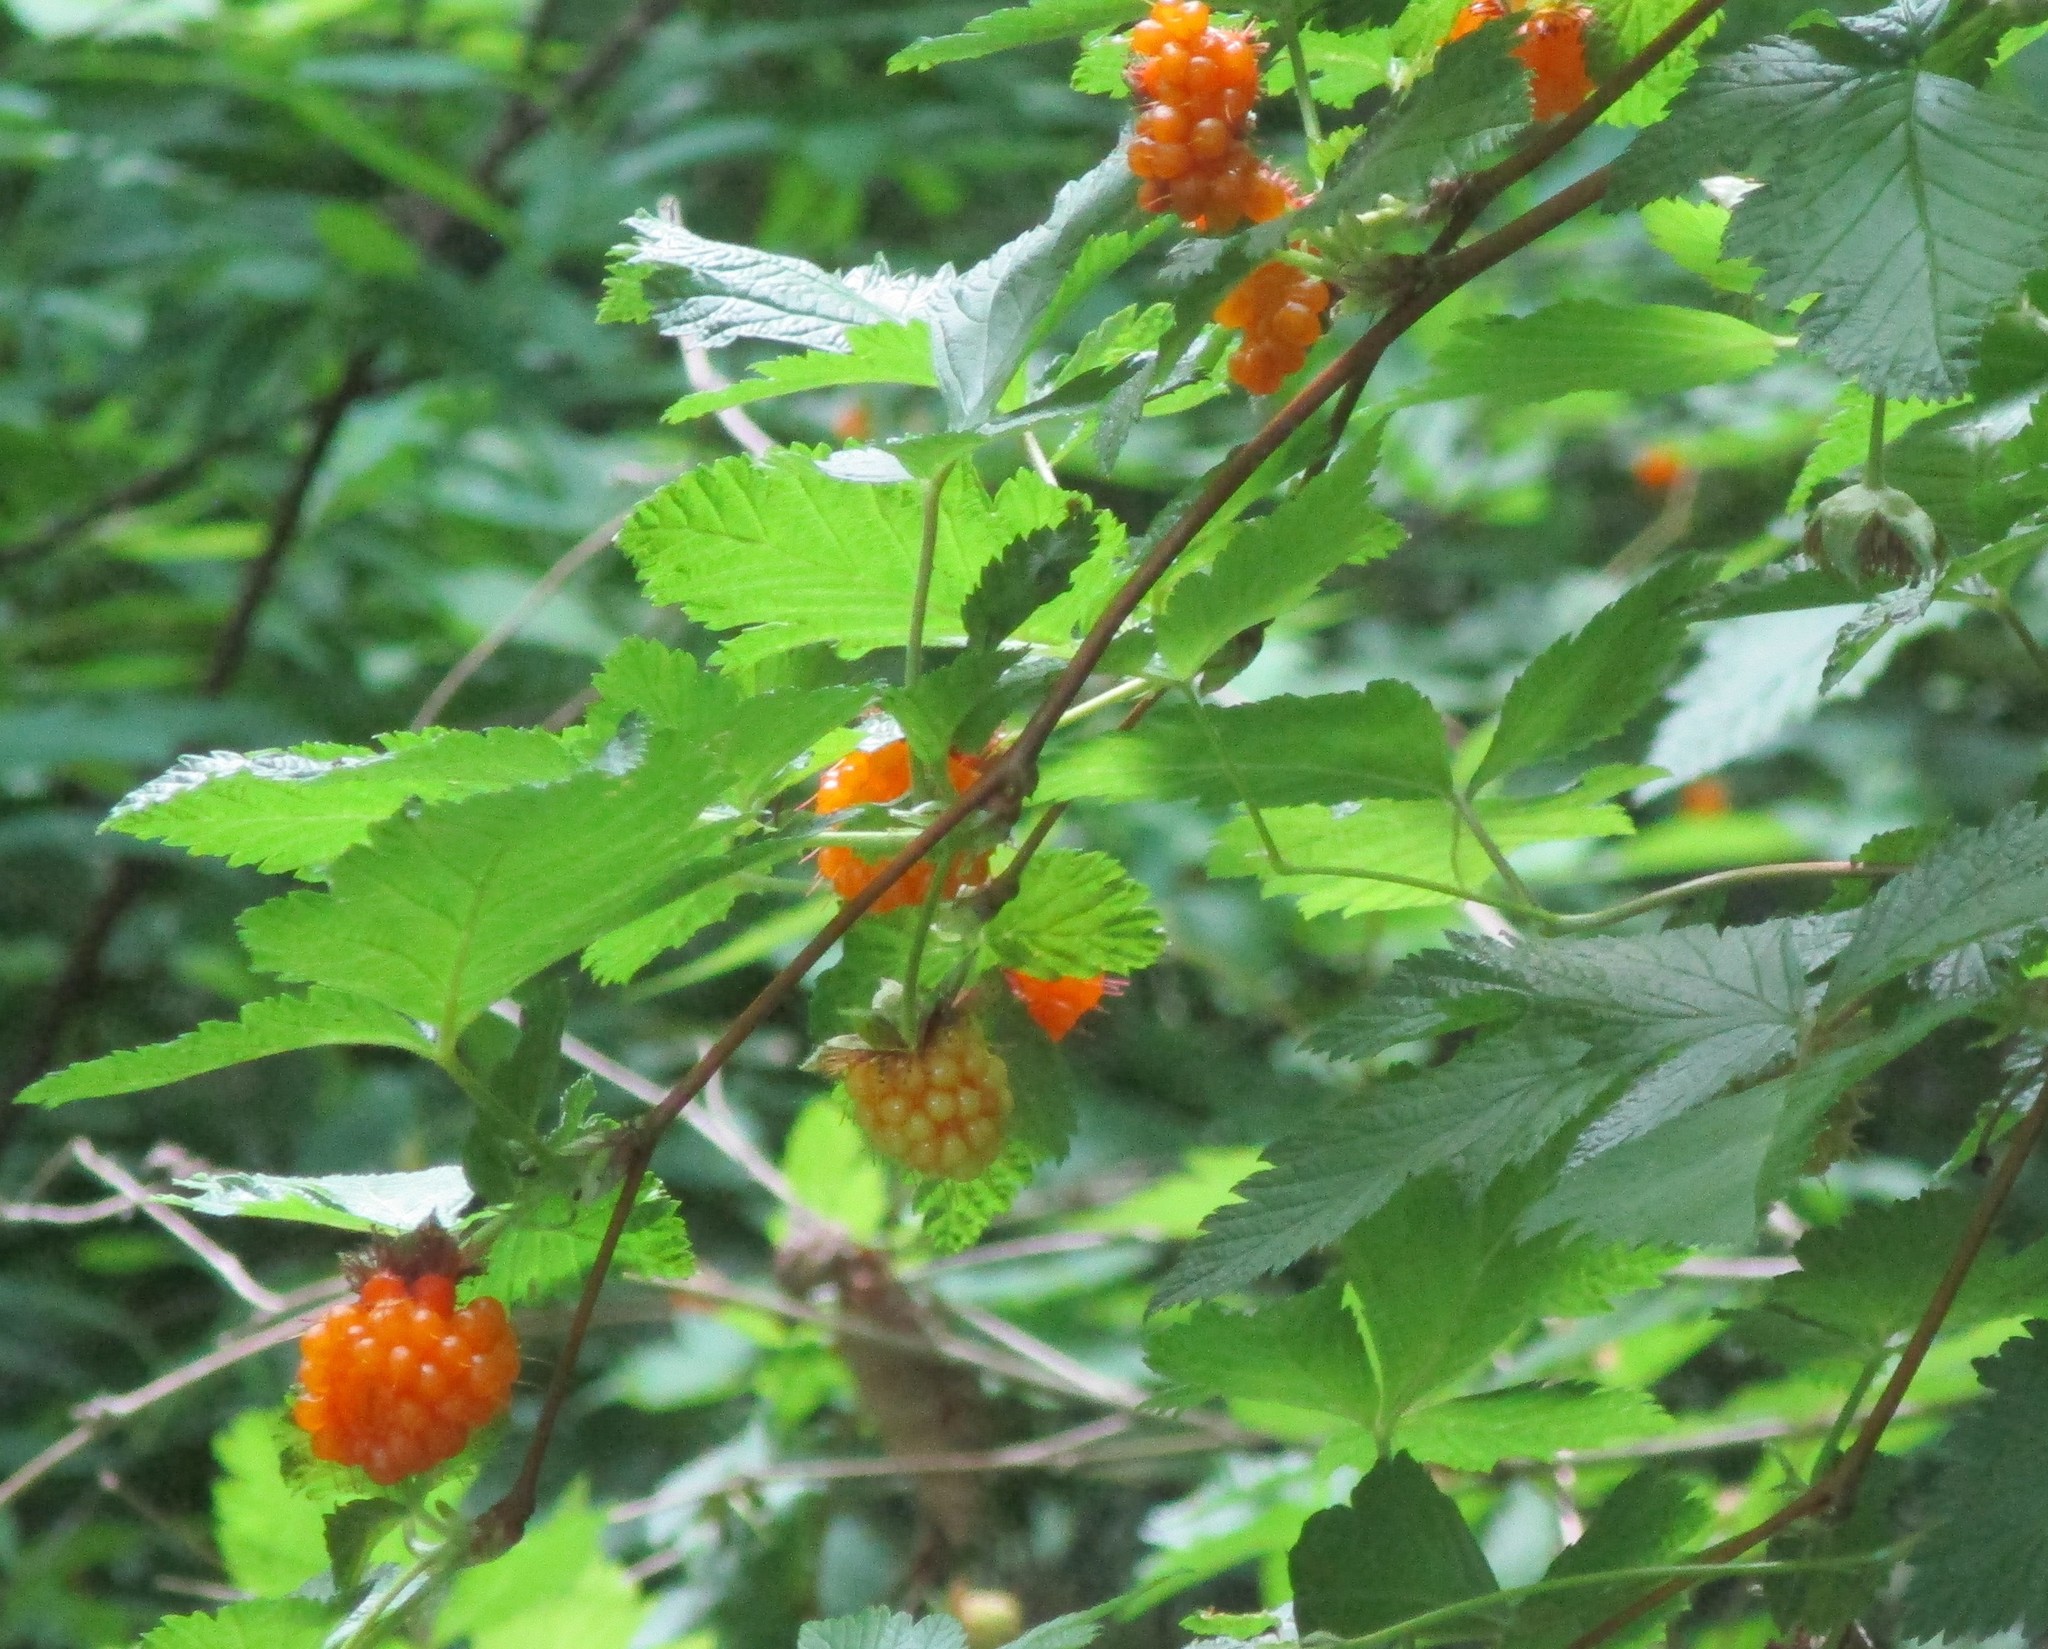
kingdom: Plantae
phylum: Tracheophyta
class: Magnoliopsida
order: Rosales
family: Rosaceae
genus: Rubus
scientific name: Rubus spectabilis
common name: Salmonberry
